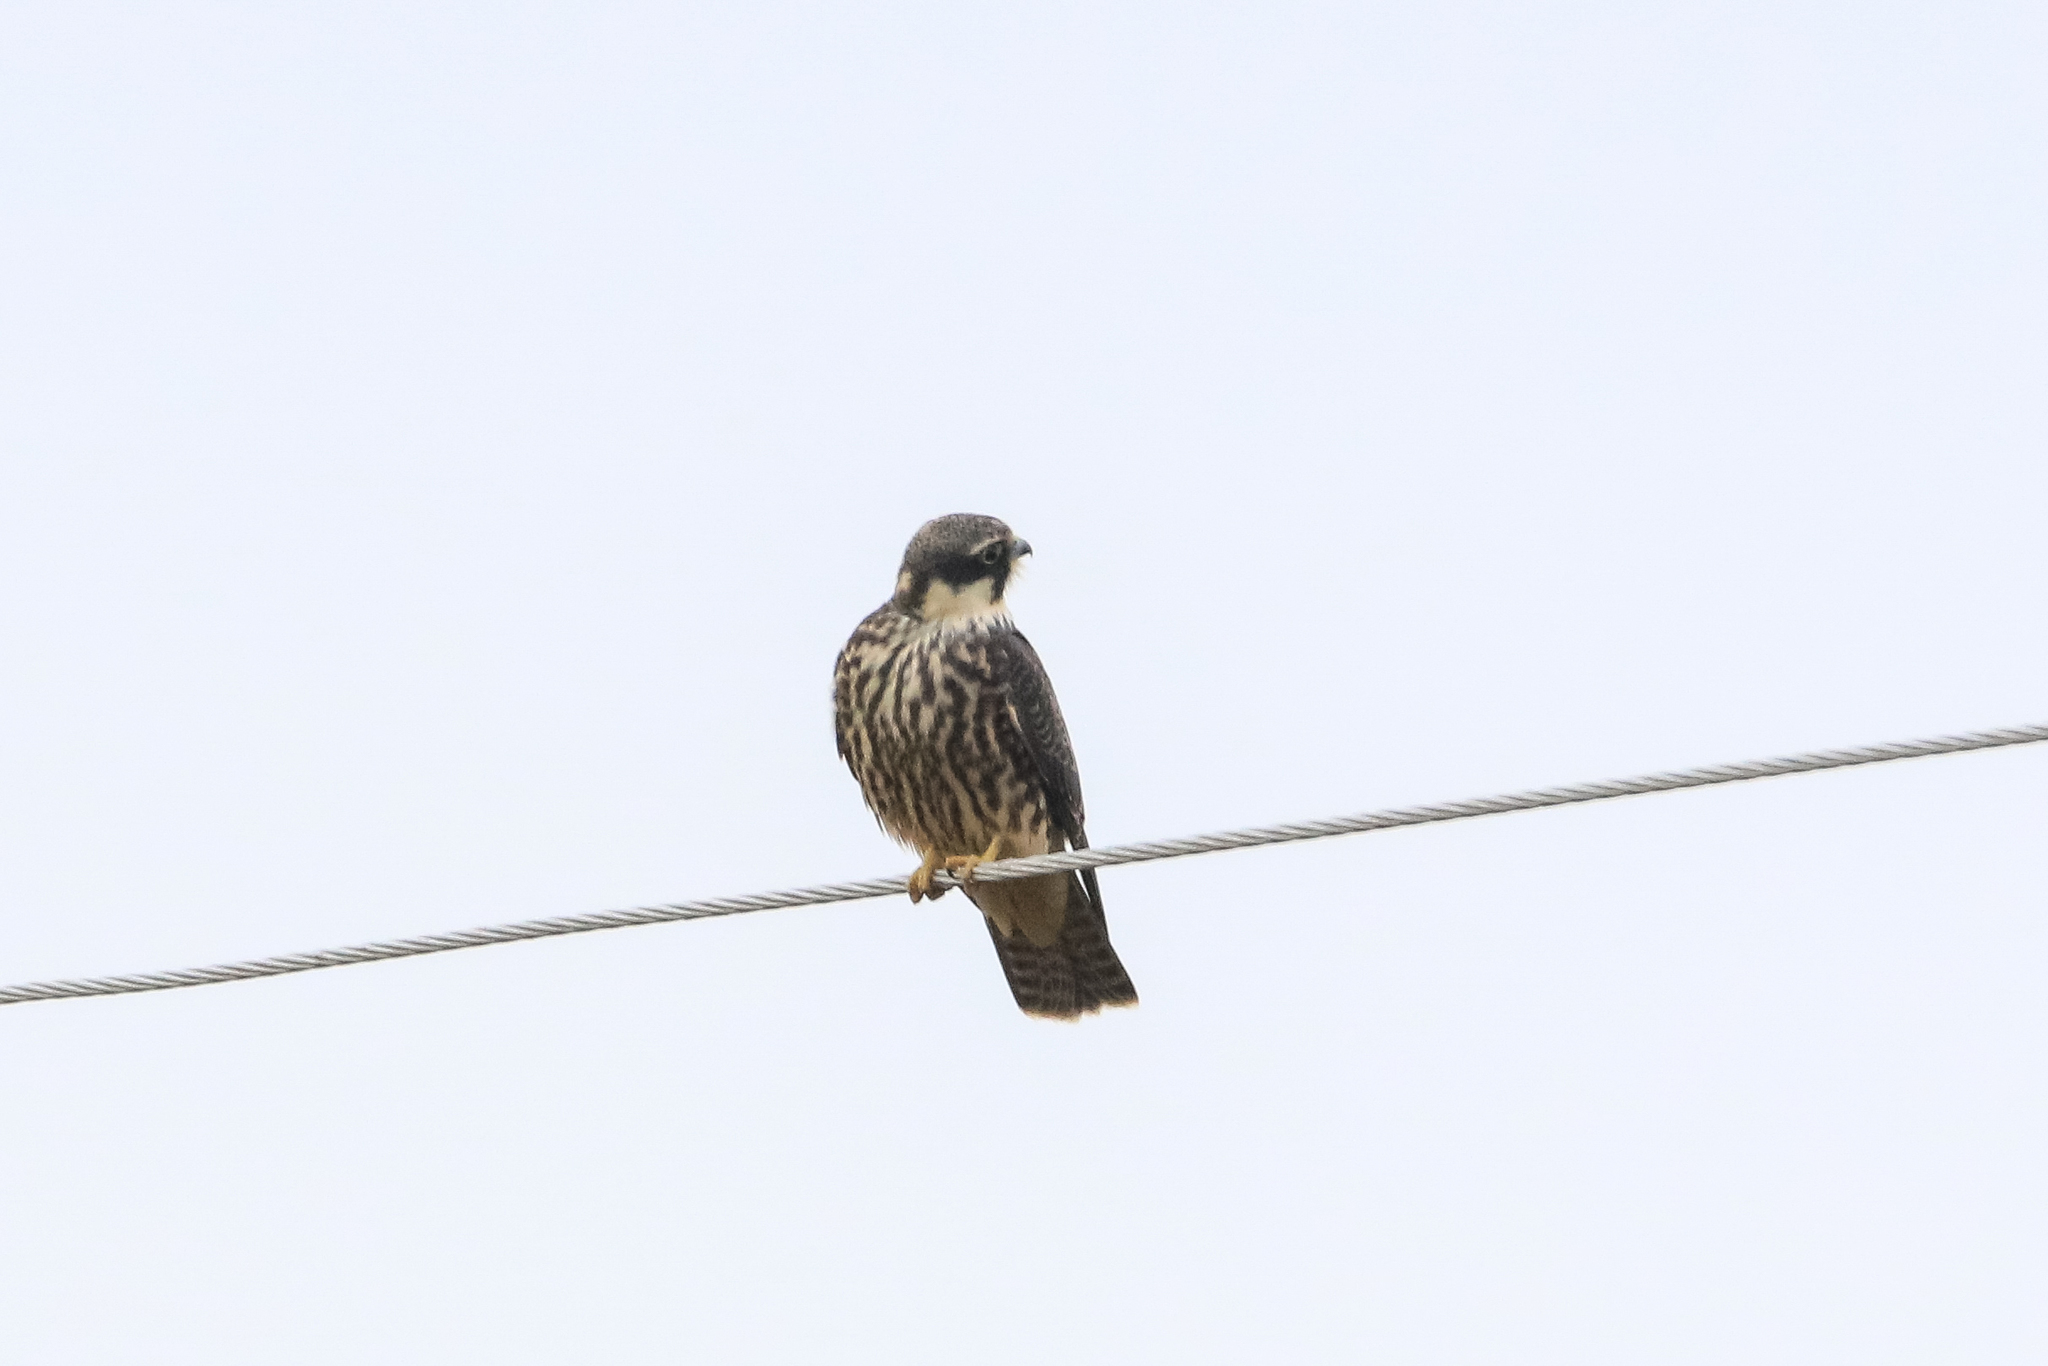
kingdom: Animalia
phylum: Chordata
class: Aves
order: Falconiformes
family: Falconidae
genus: Falco
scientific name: Falco subbuteo
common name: Eurasian hobby
